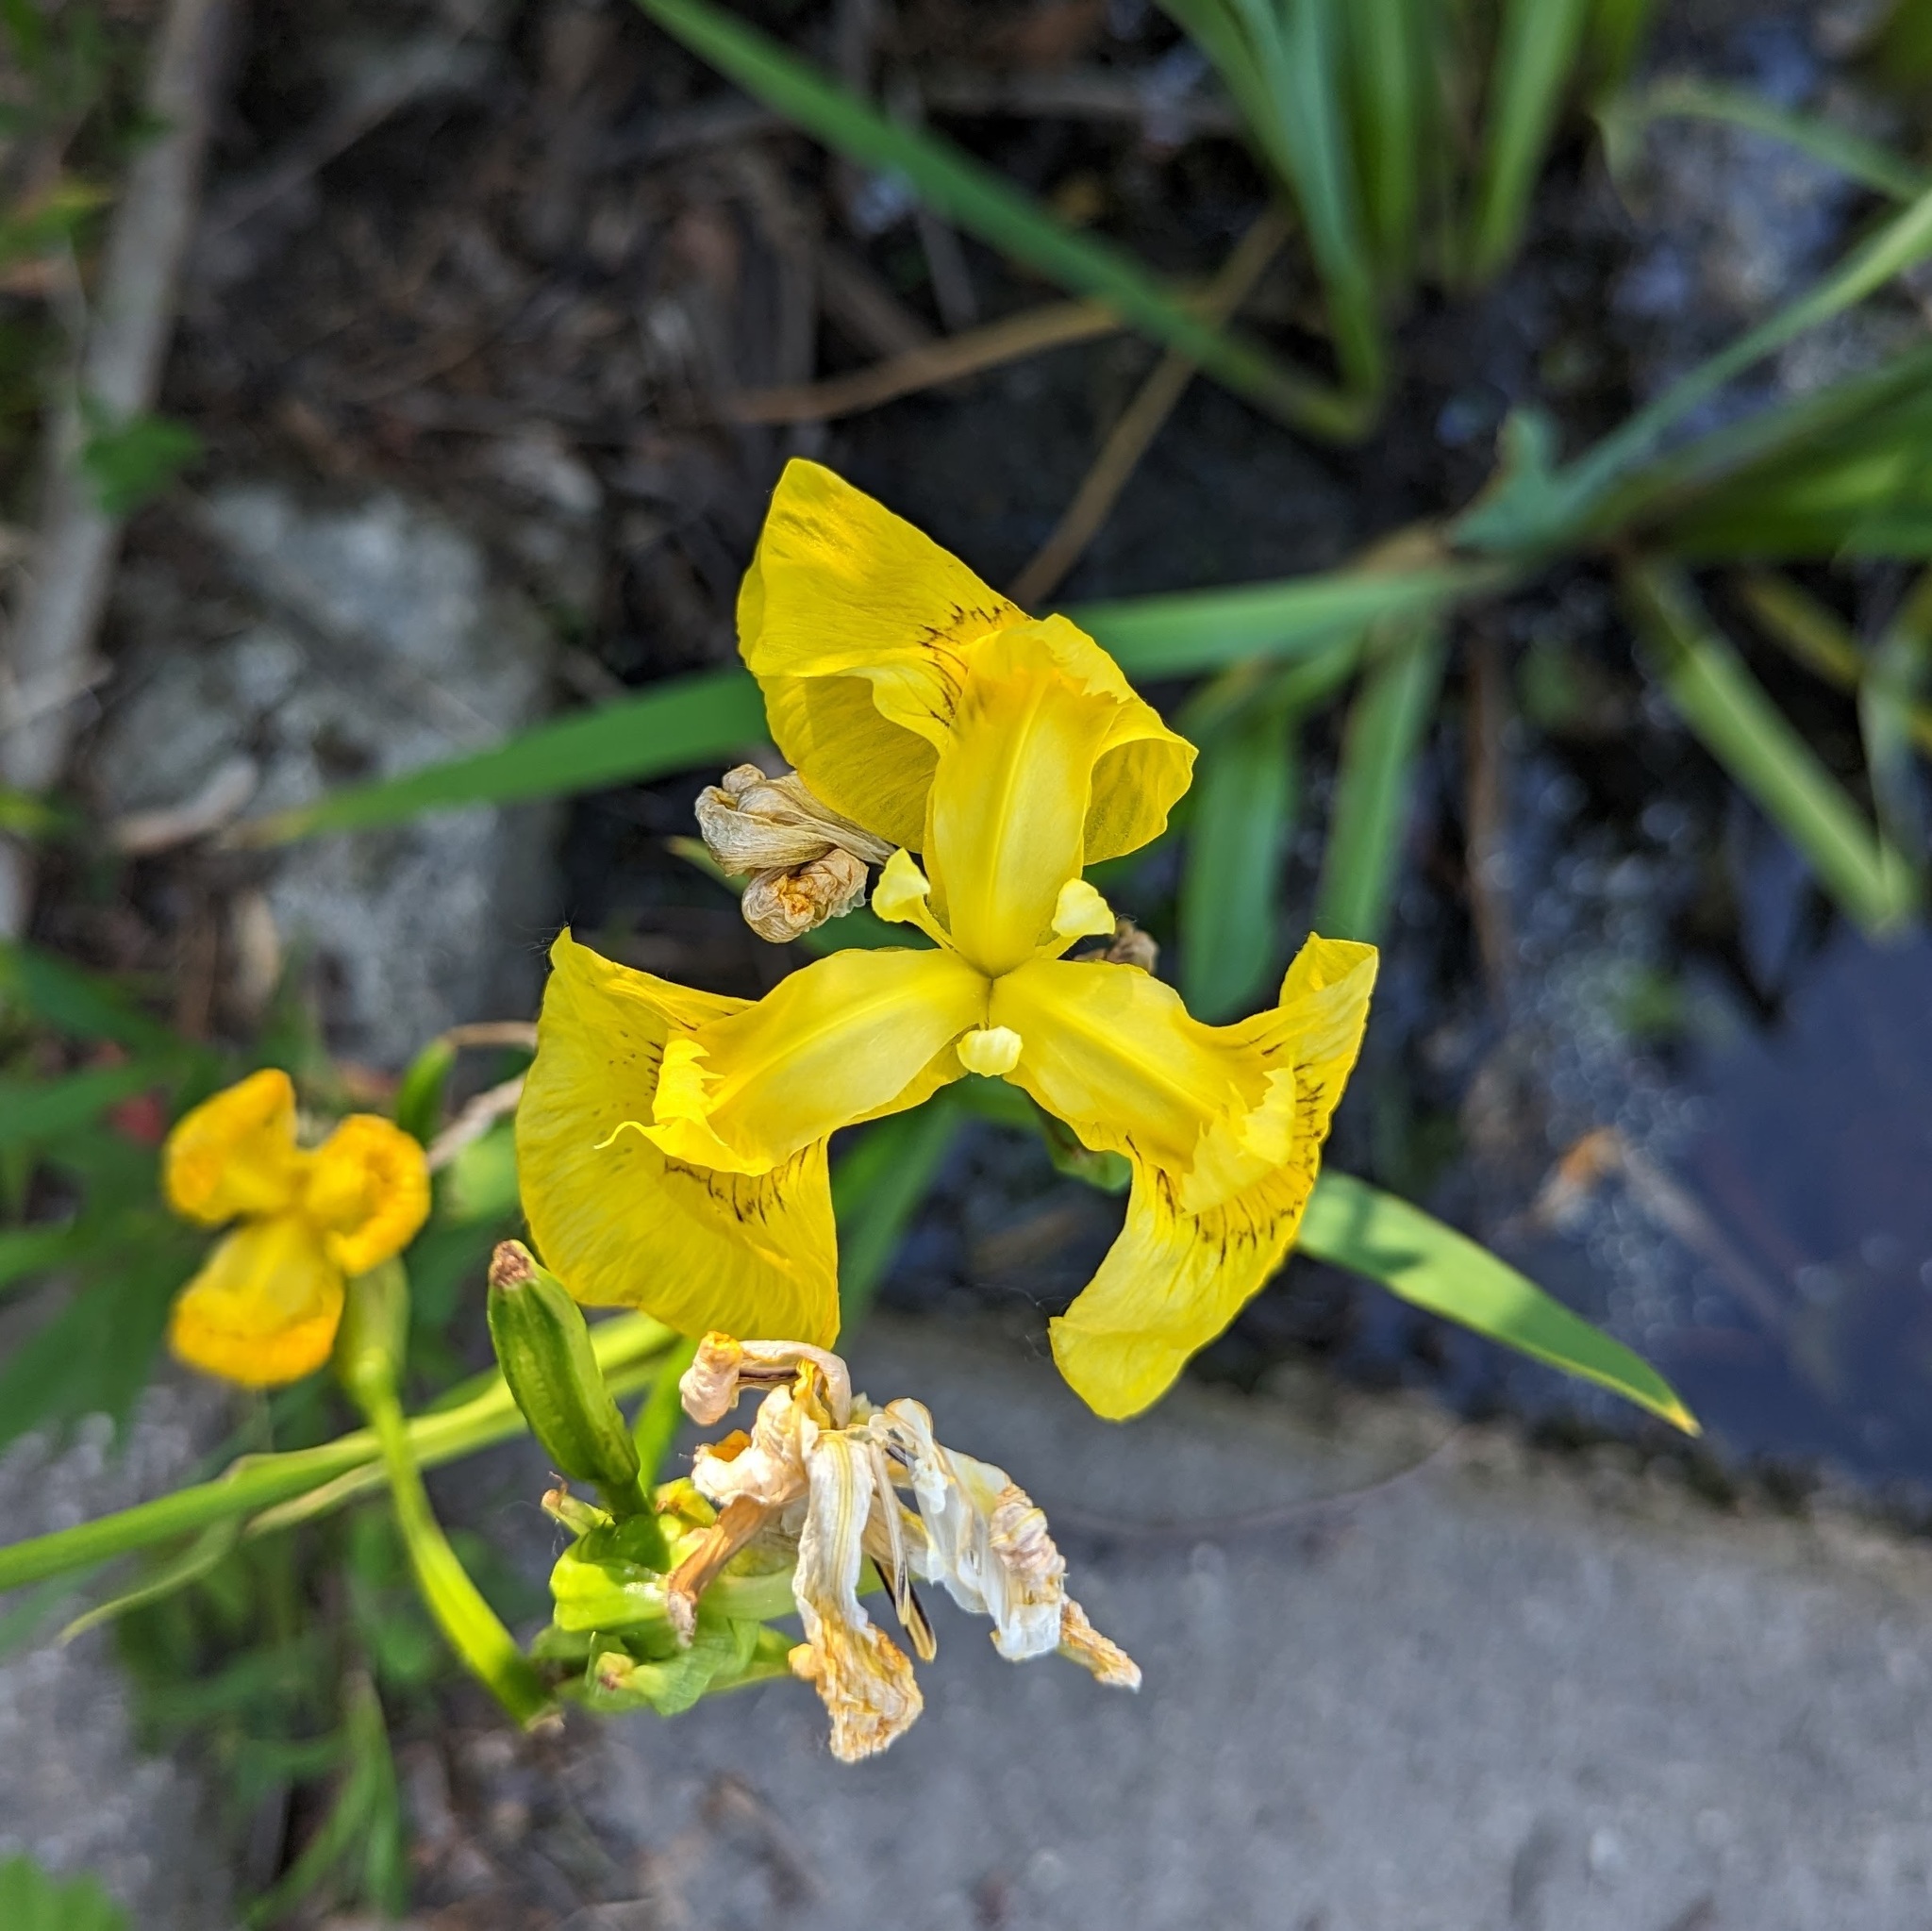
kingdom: Plantae
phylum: Tracheophyta
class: Liliopsida
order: Asparagales
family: Iridaceae
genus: Iris
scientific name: Iris pseudacorus
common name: Yellow flag
